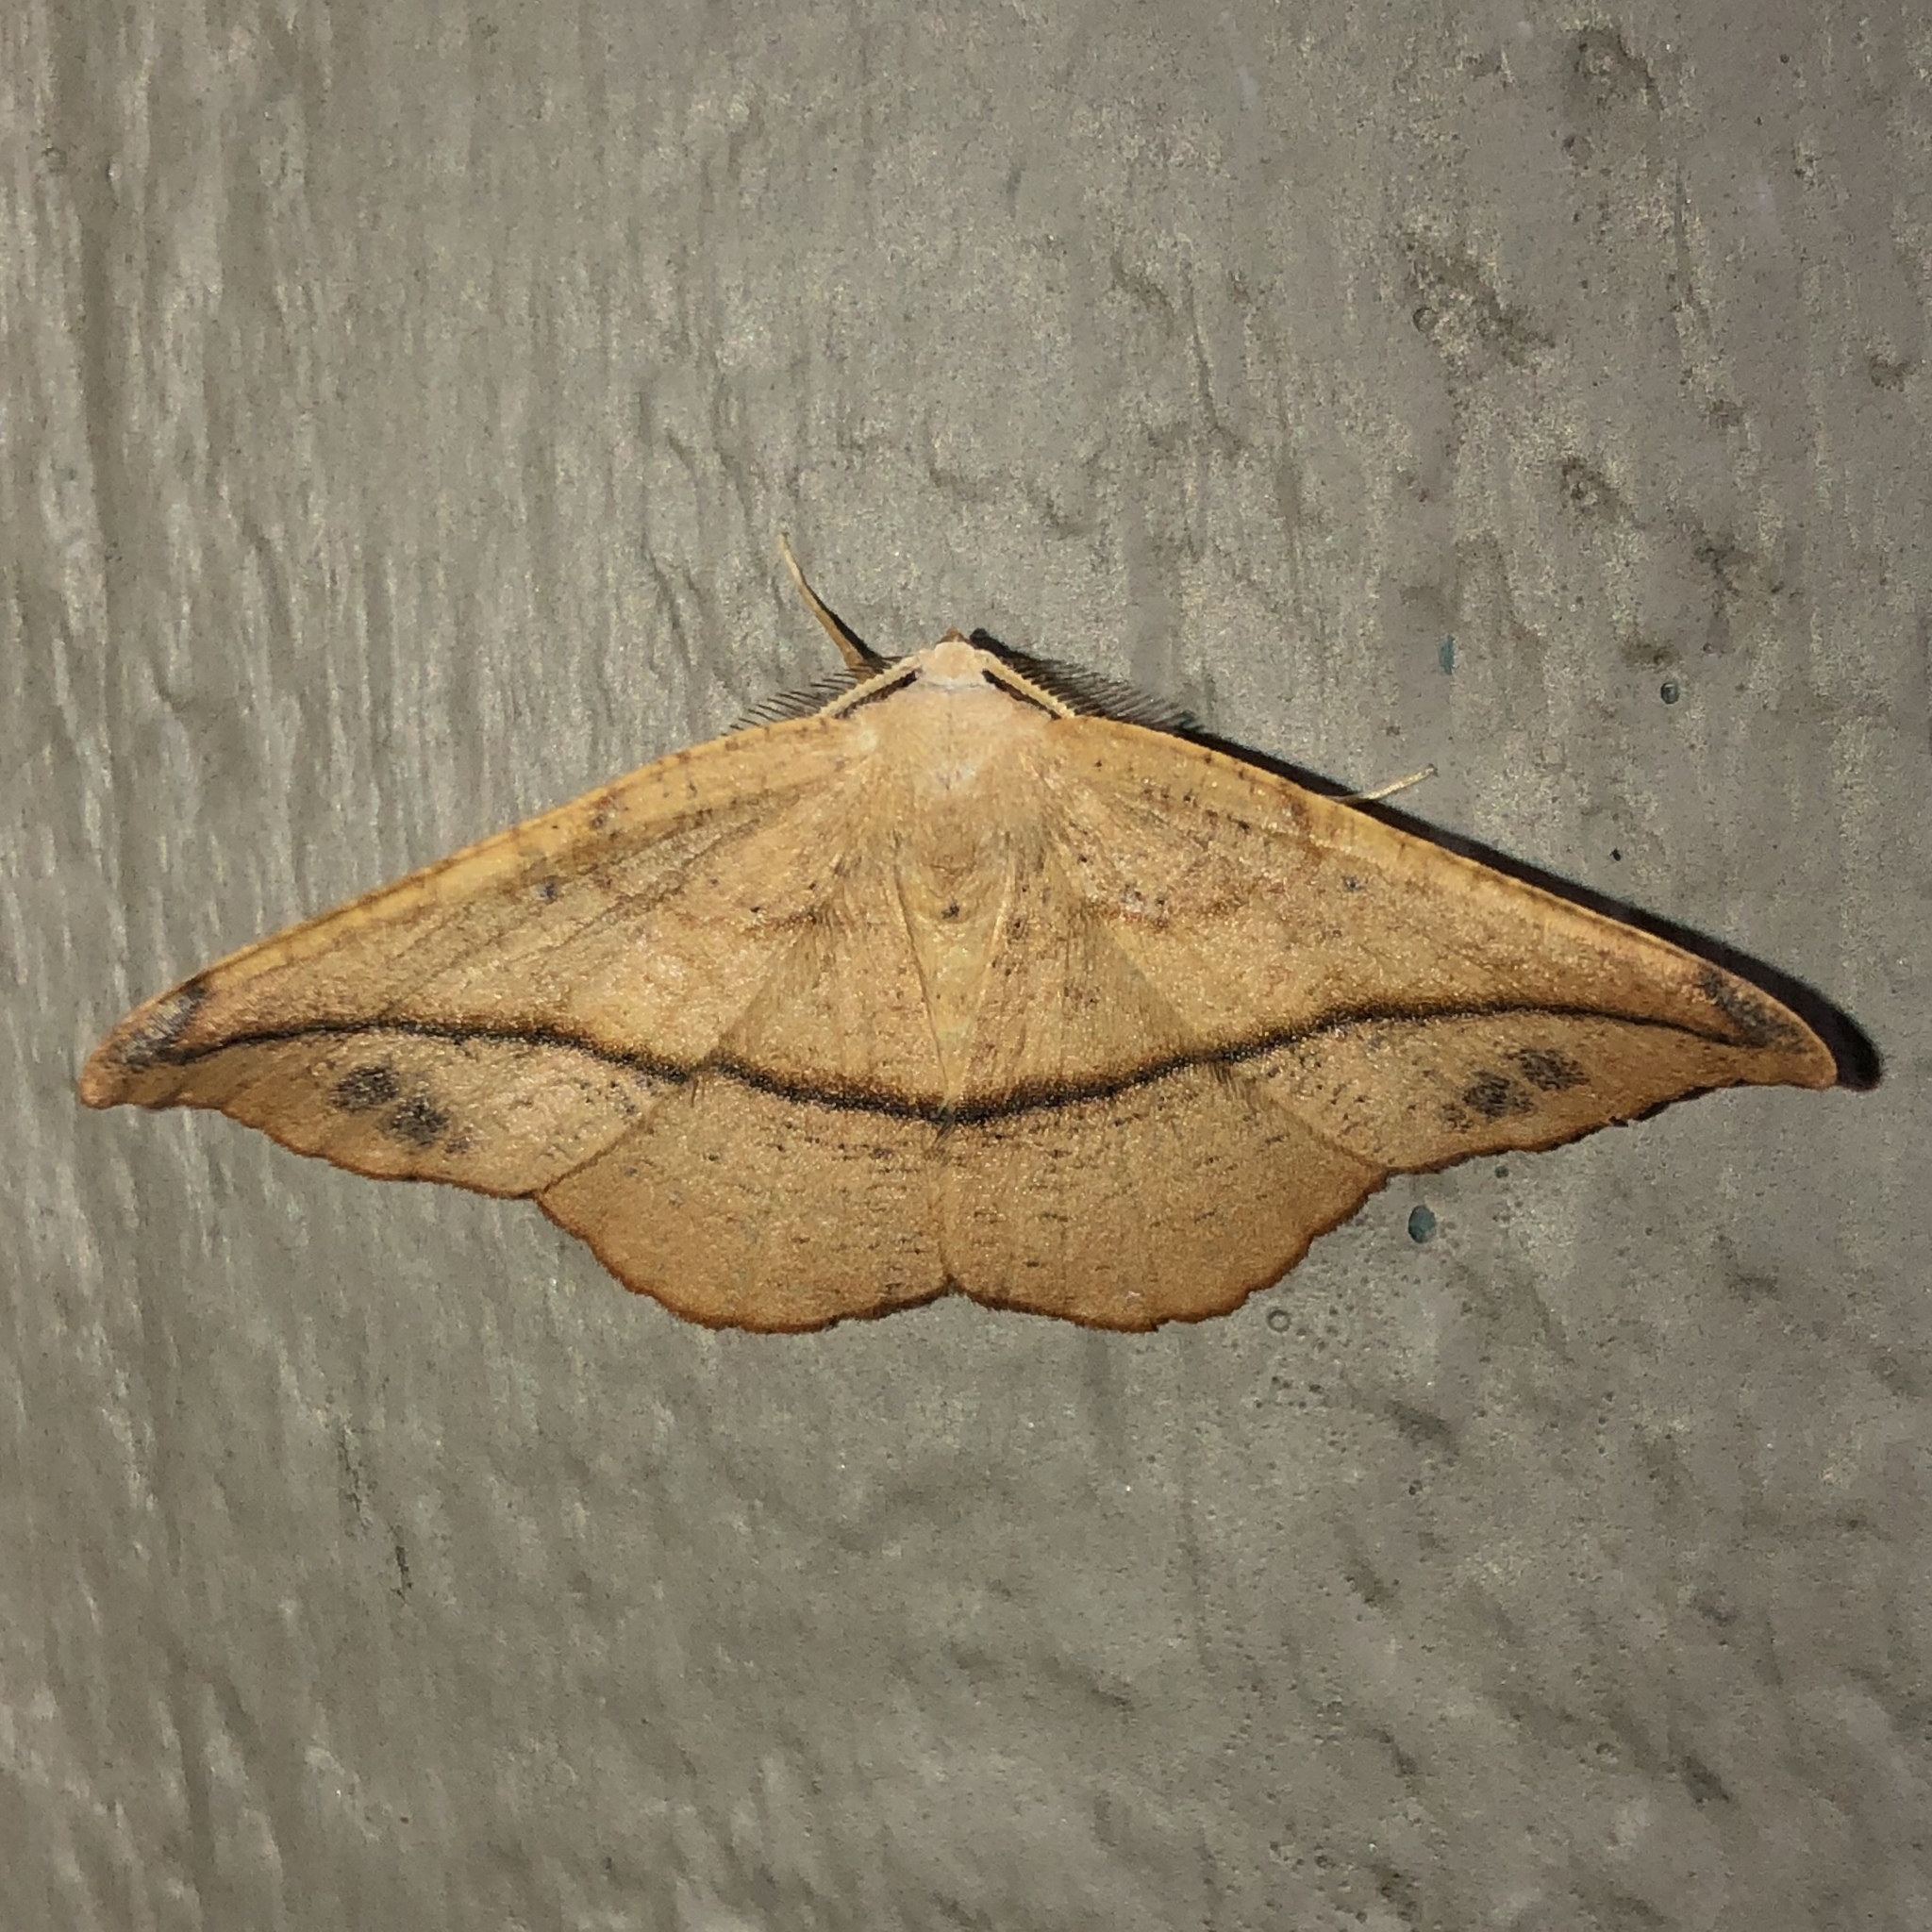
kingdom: Animalia
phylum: Arthropoda
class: Insecta
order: Lepidoptera
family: Geometridae
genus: Patalene
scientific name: Patalene olyzonaria
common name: Juniper geometer moth
